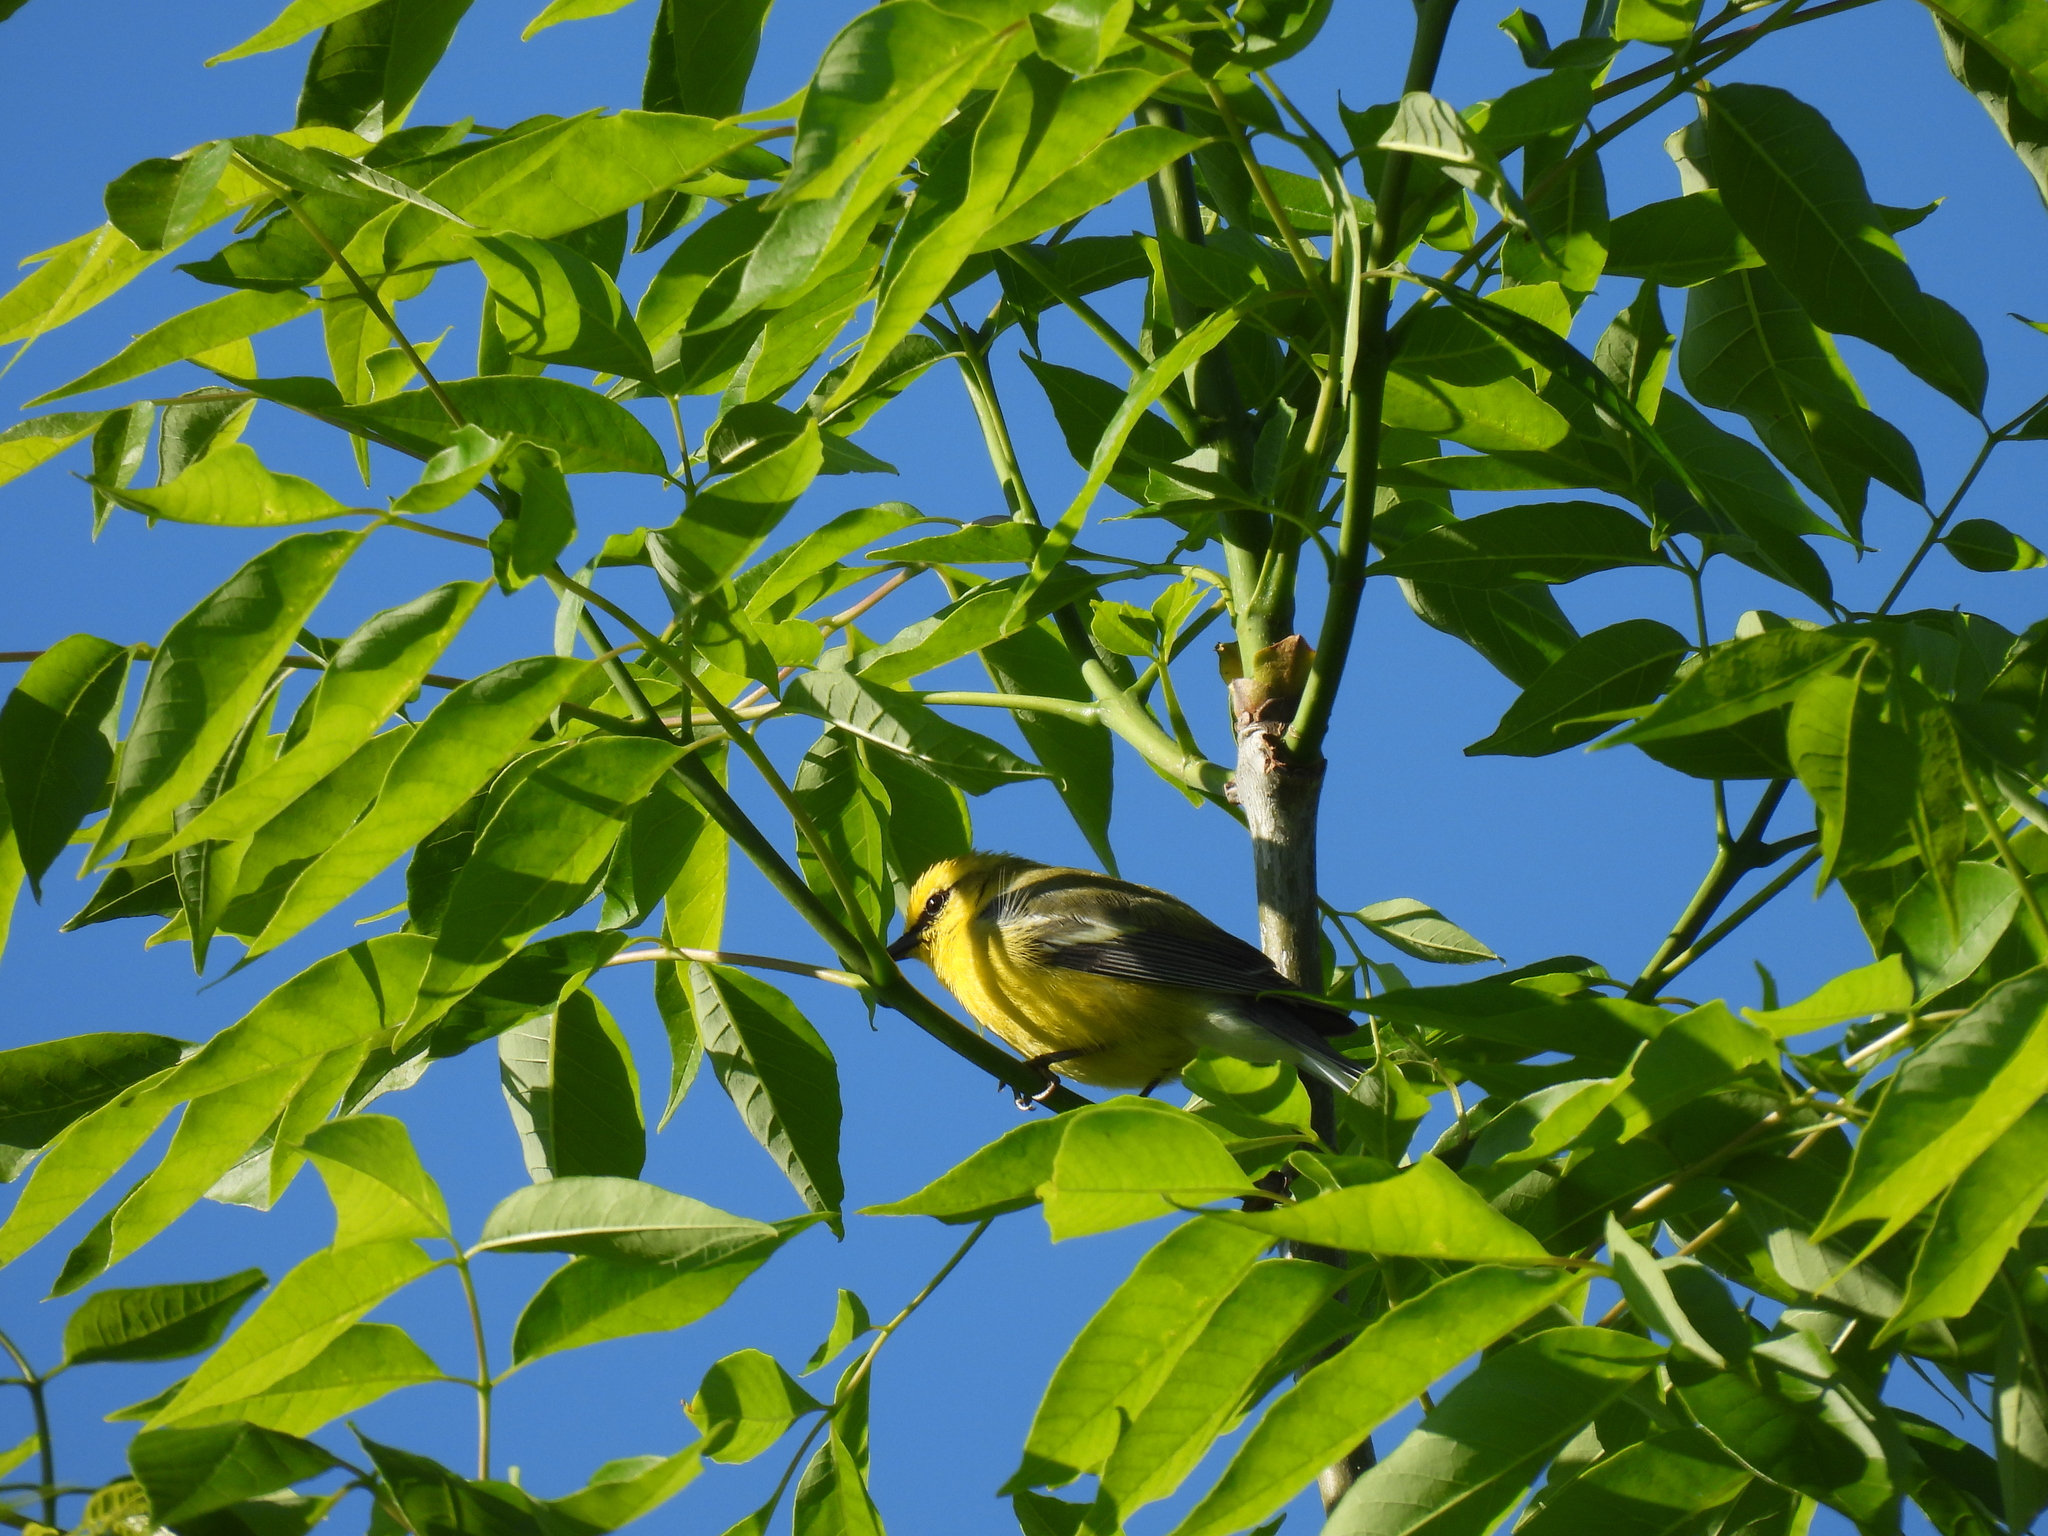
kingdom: Animalia
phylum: Chordata
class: Aves
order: Passeriformes
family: Parulidae
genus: Vermivora
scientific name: Vermivora cyanoptera
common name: Blue-winged warbler
